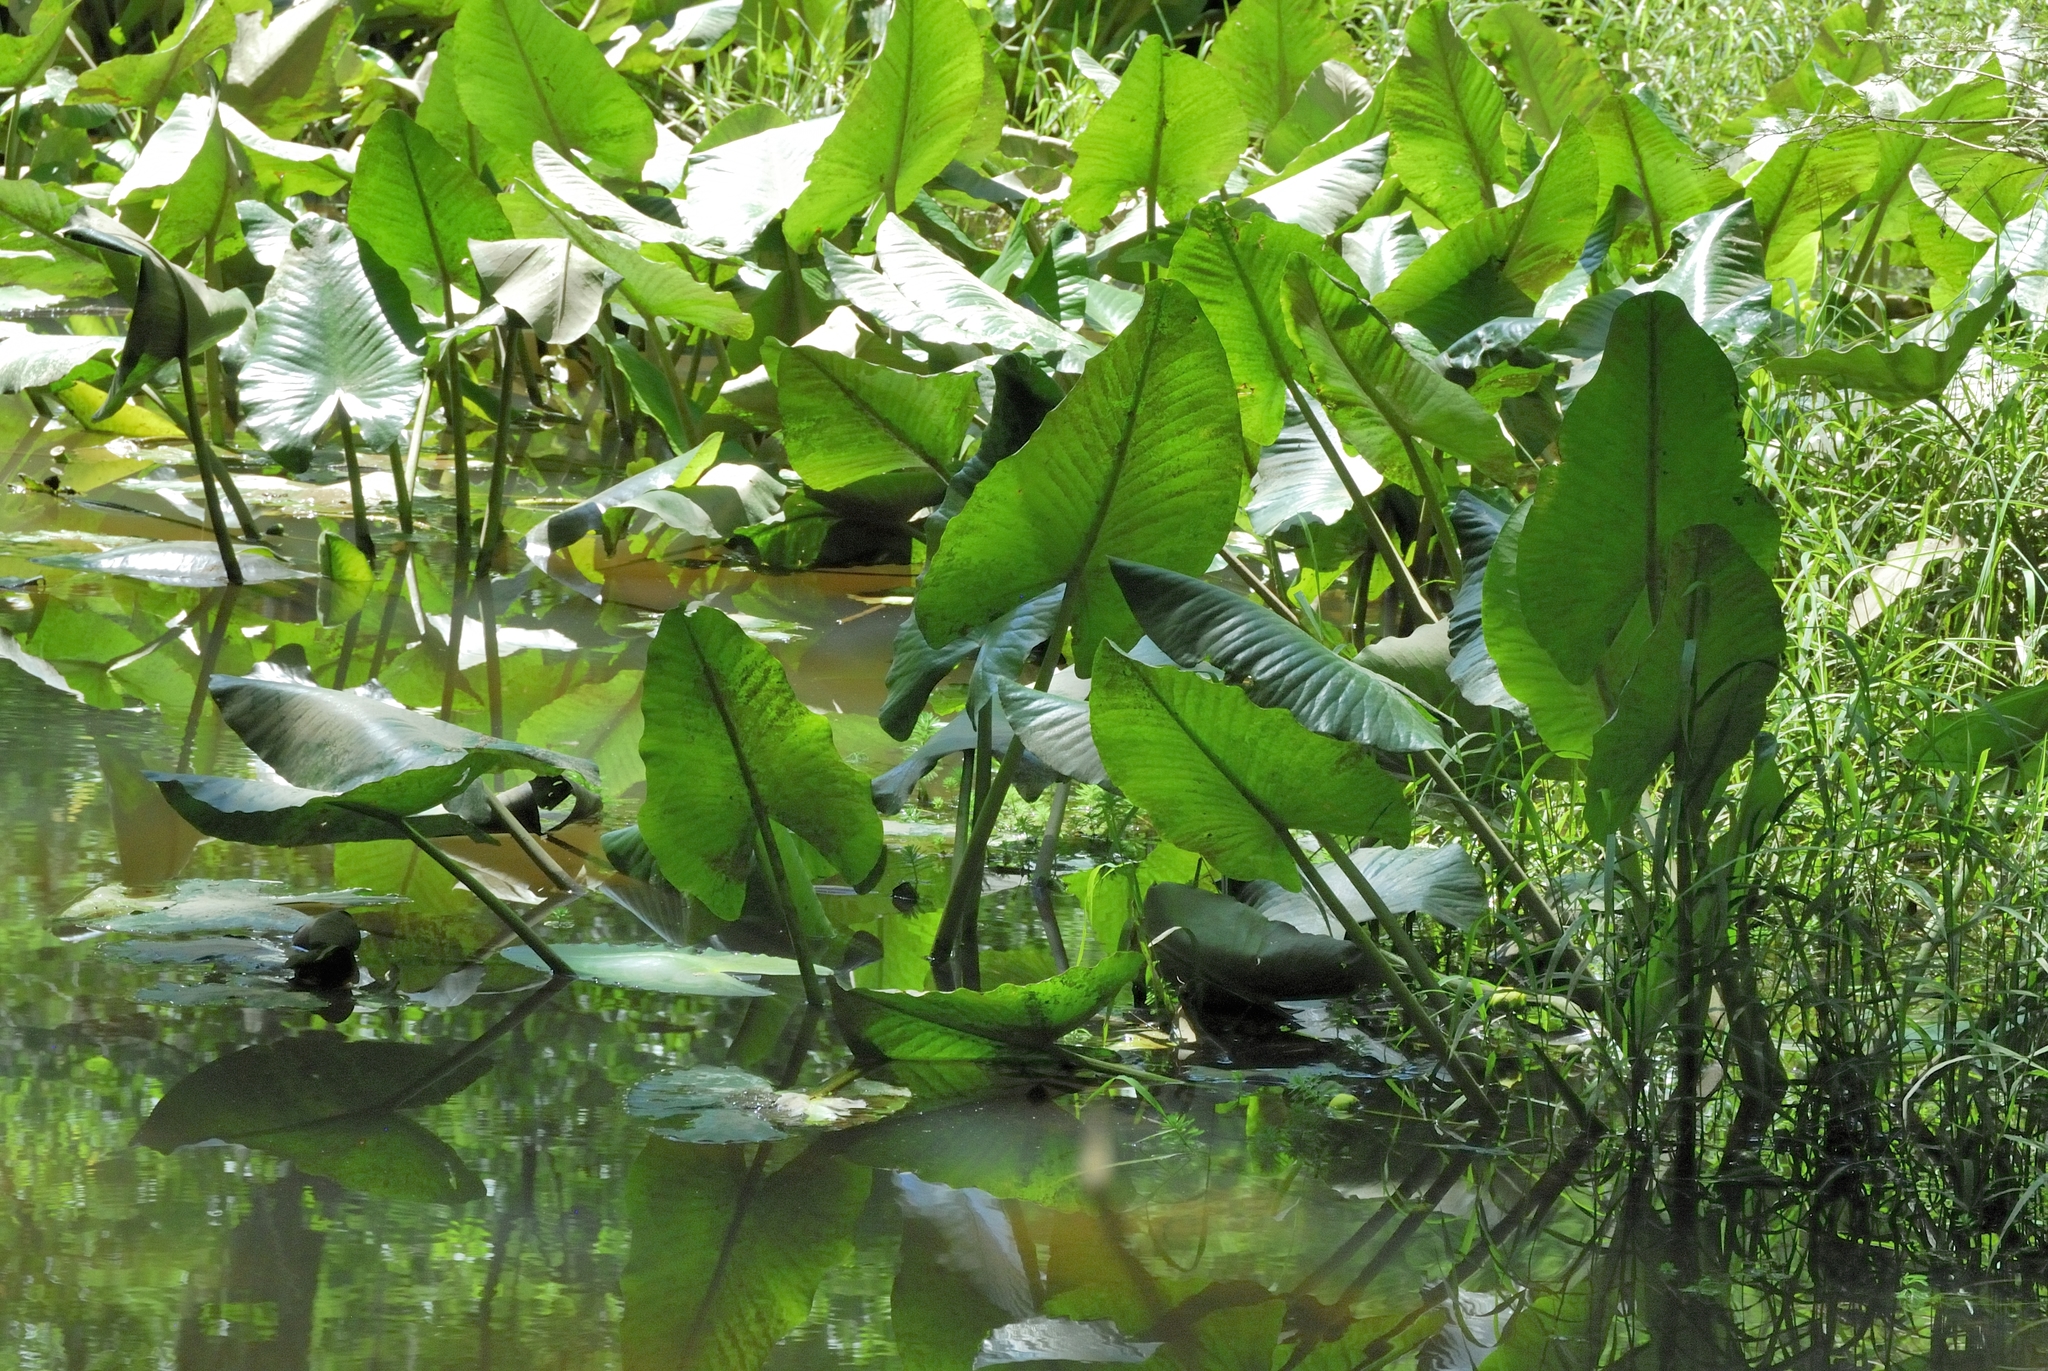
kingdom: Plantae
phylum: Tracheophyta
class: Magnoliopsida
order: Nymphaeales
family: Nymphaeaceae
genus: Nuphar
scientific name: Nuphar advena
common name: Spatter-dock
